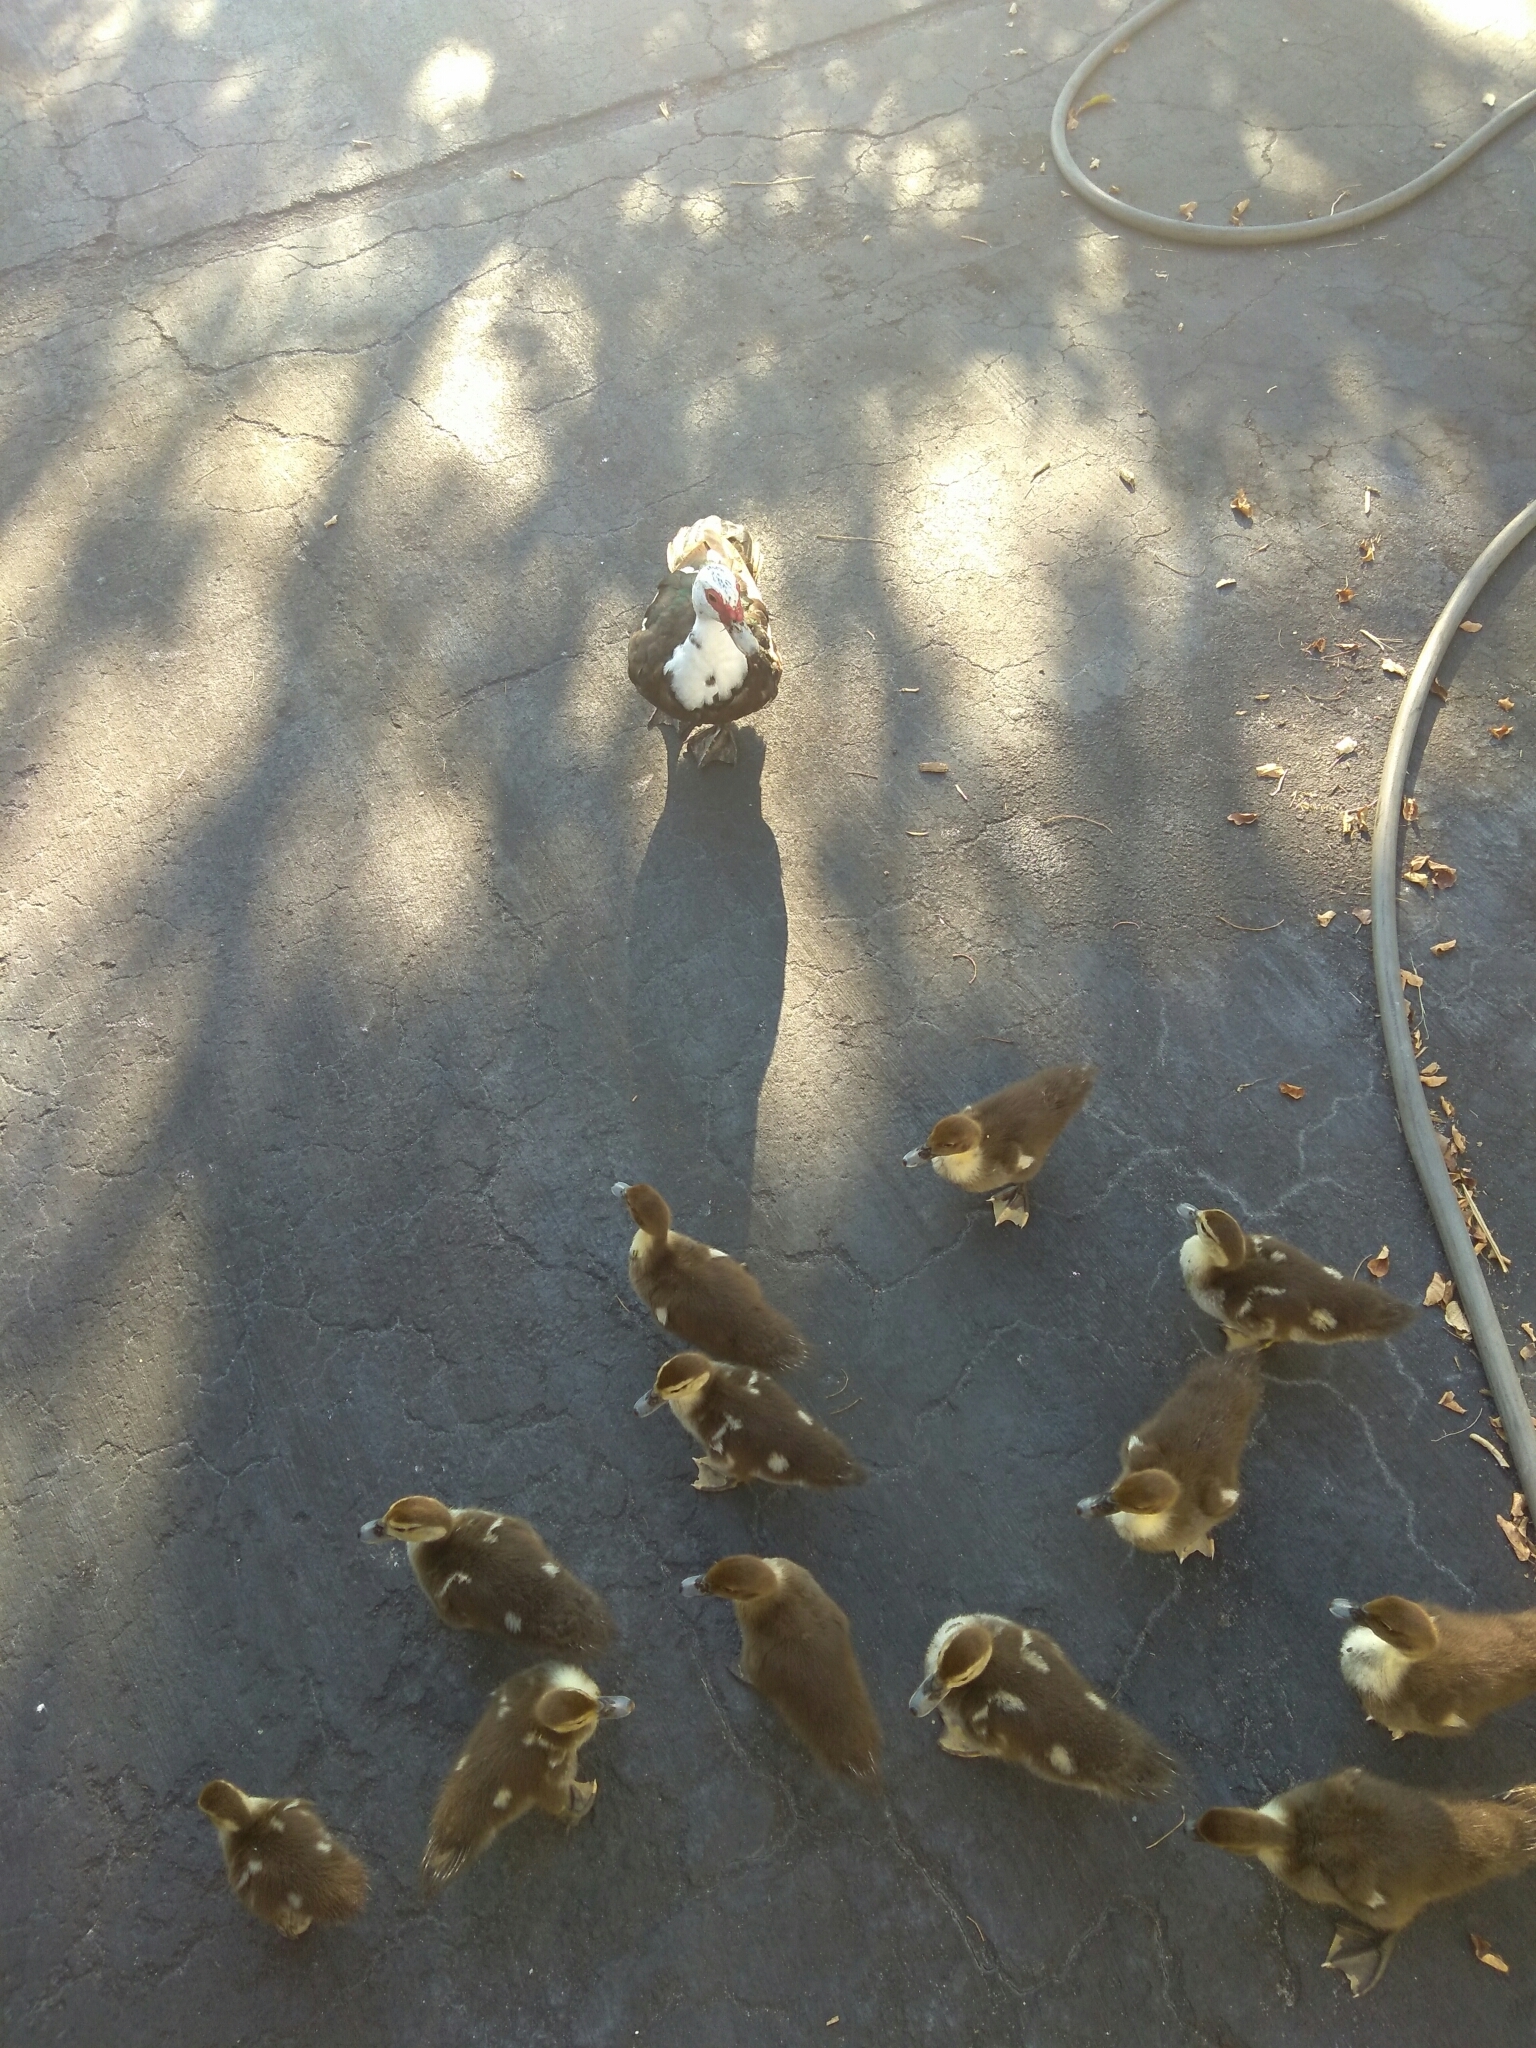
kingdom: Animalia
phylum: Chordata
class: Aves
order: Anseriformes
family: Anatidae
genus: Cairina
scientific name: Cairina moschata
